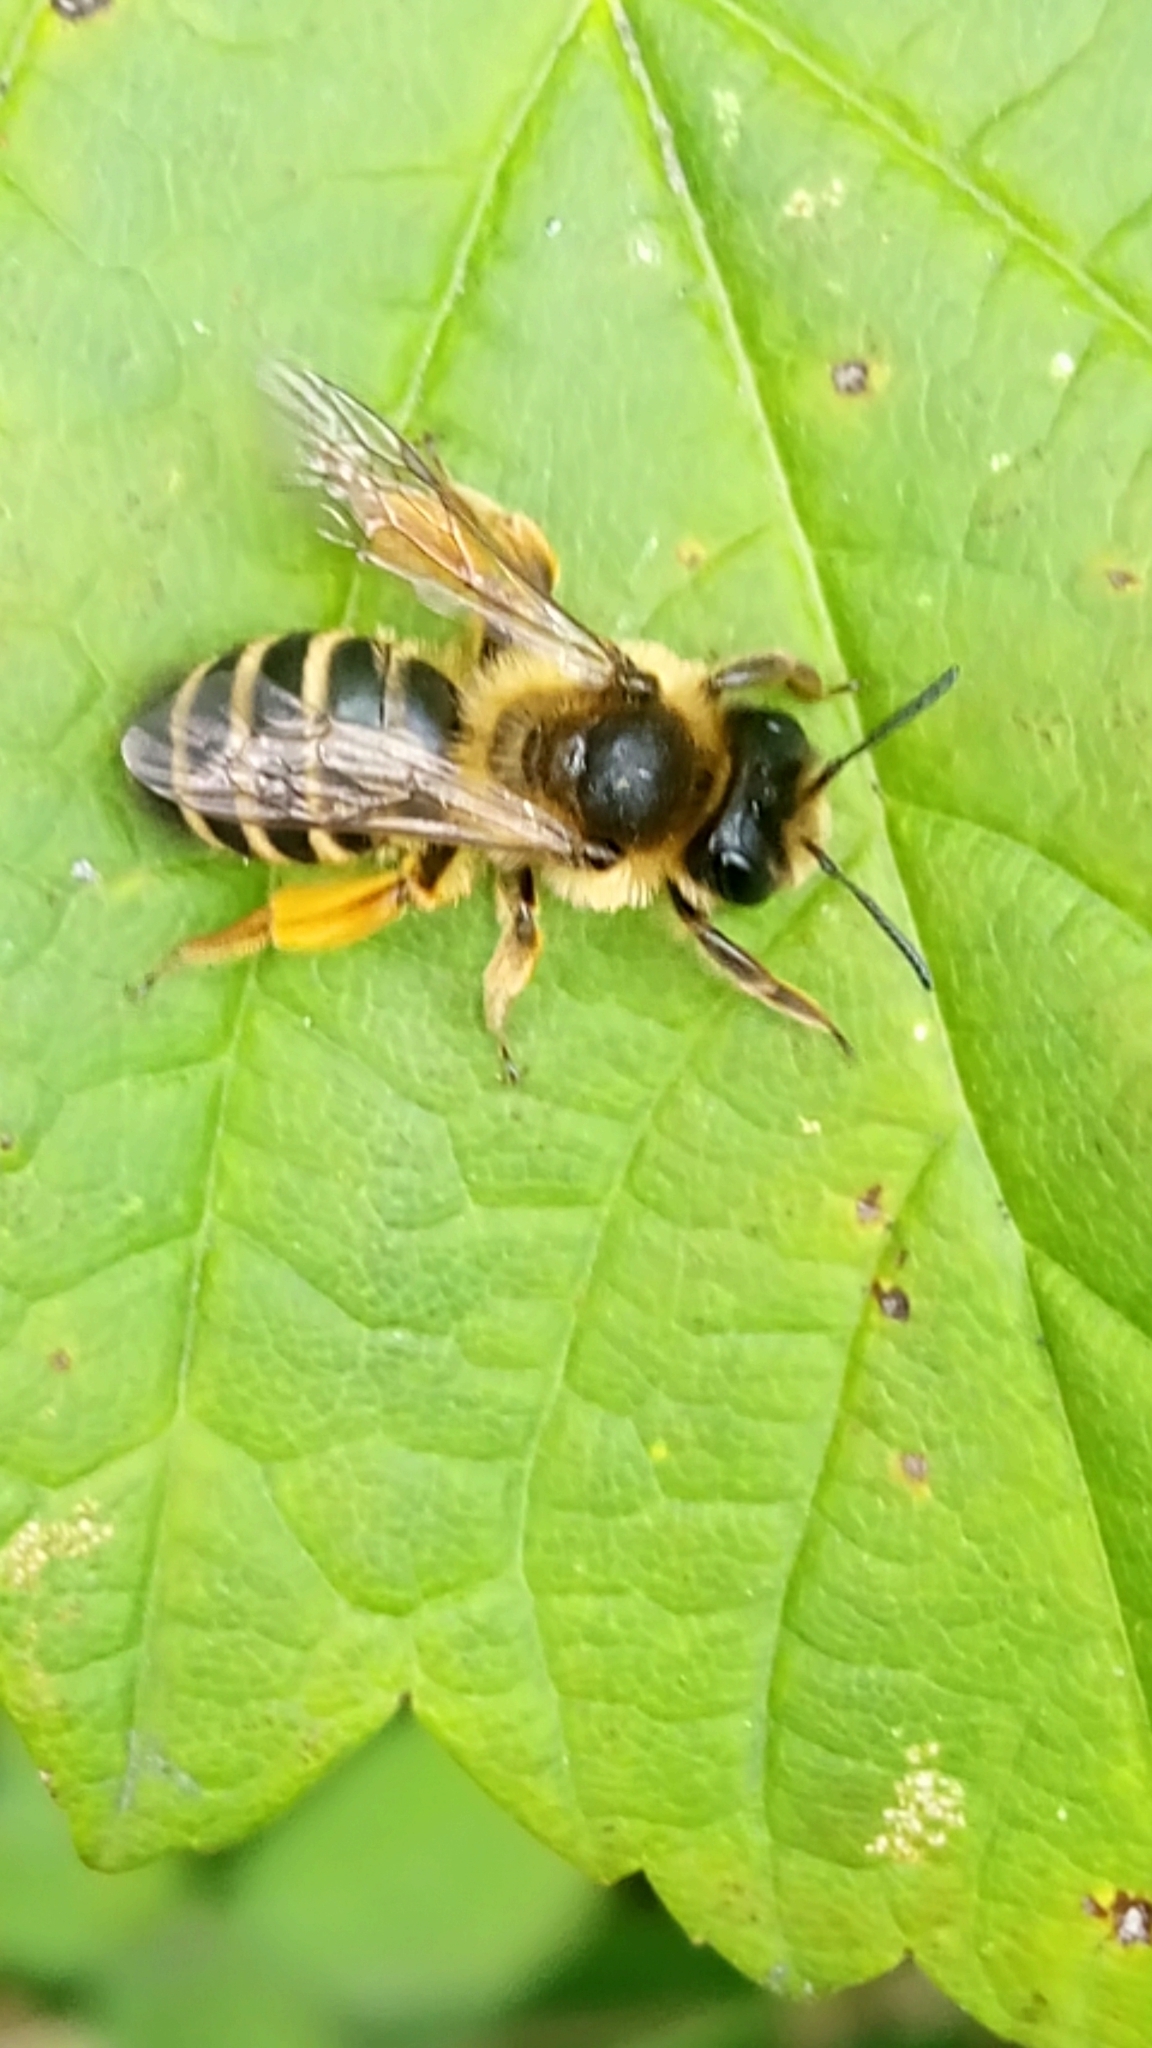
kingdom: Animalia
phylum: Arthropoda
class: Insecta
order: Hymenoptera
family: Andrenidae
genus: Andrena
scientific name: Andrena flavipes
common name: Yellow-legged mining bee
